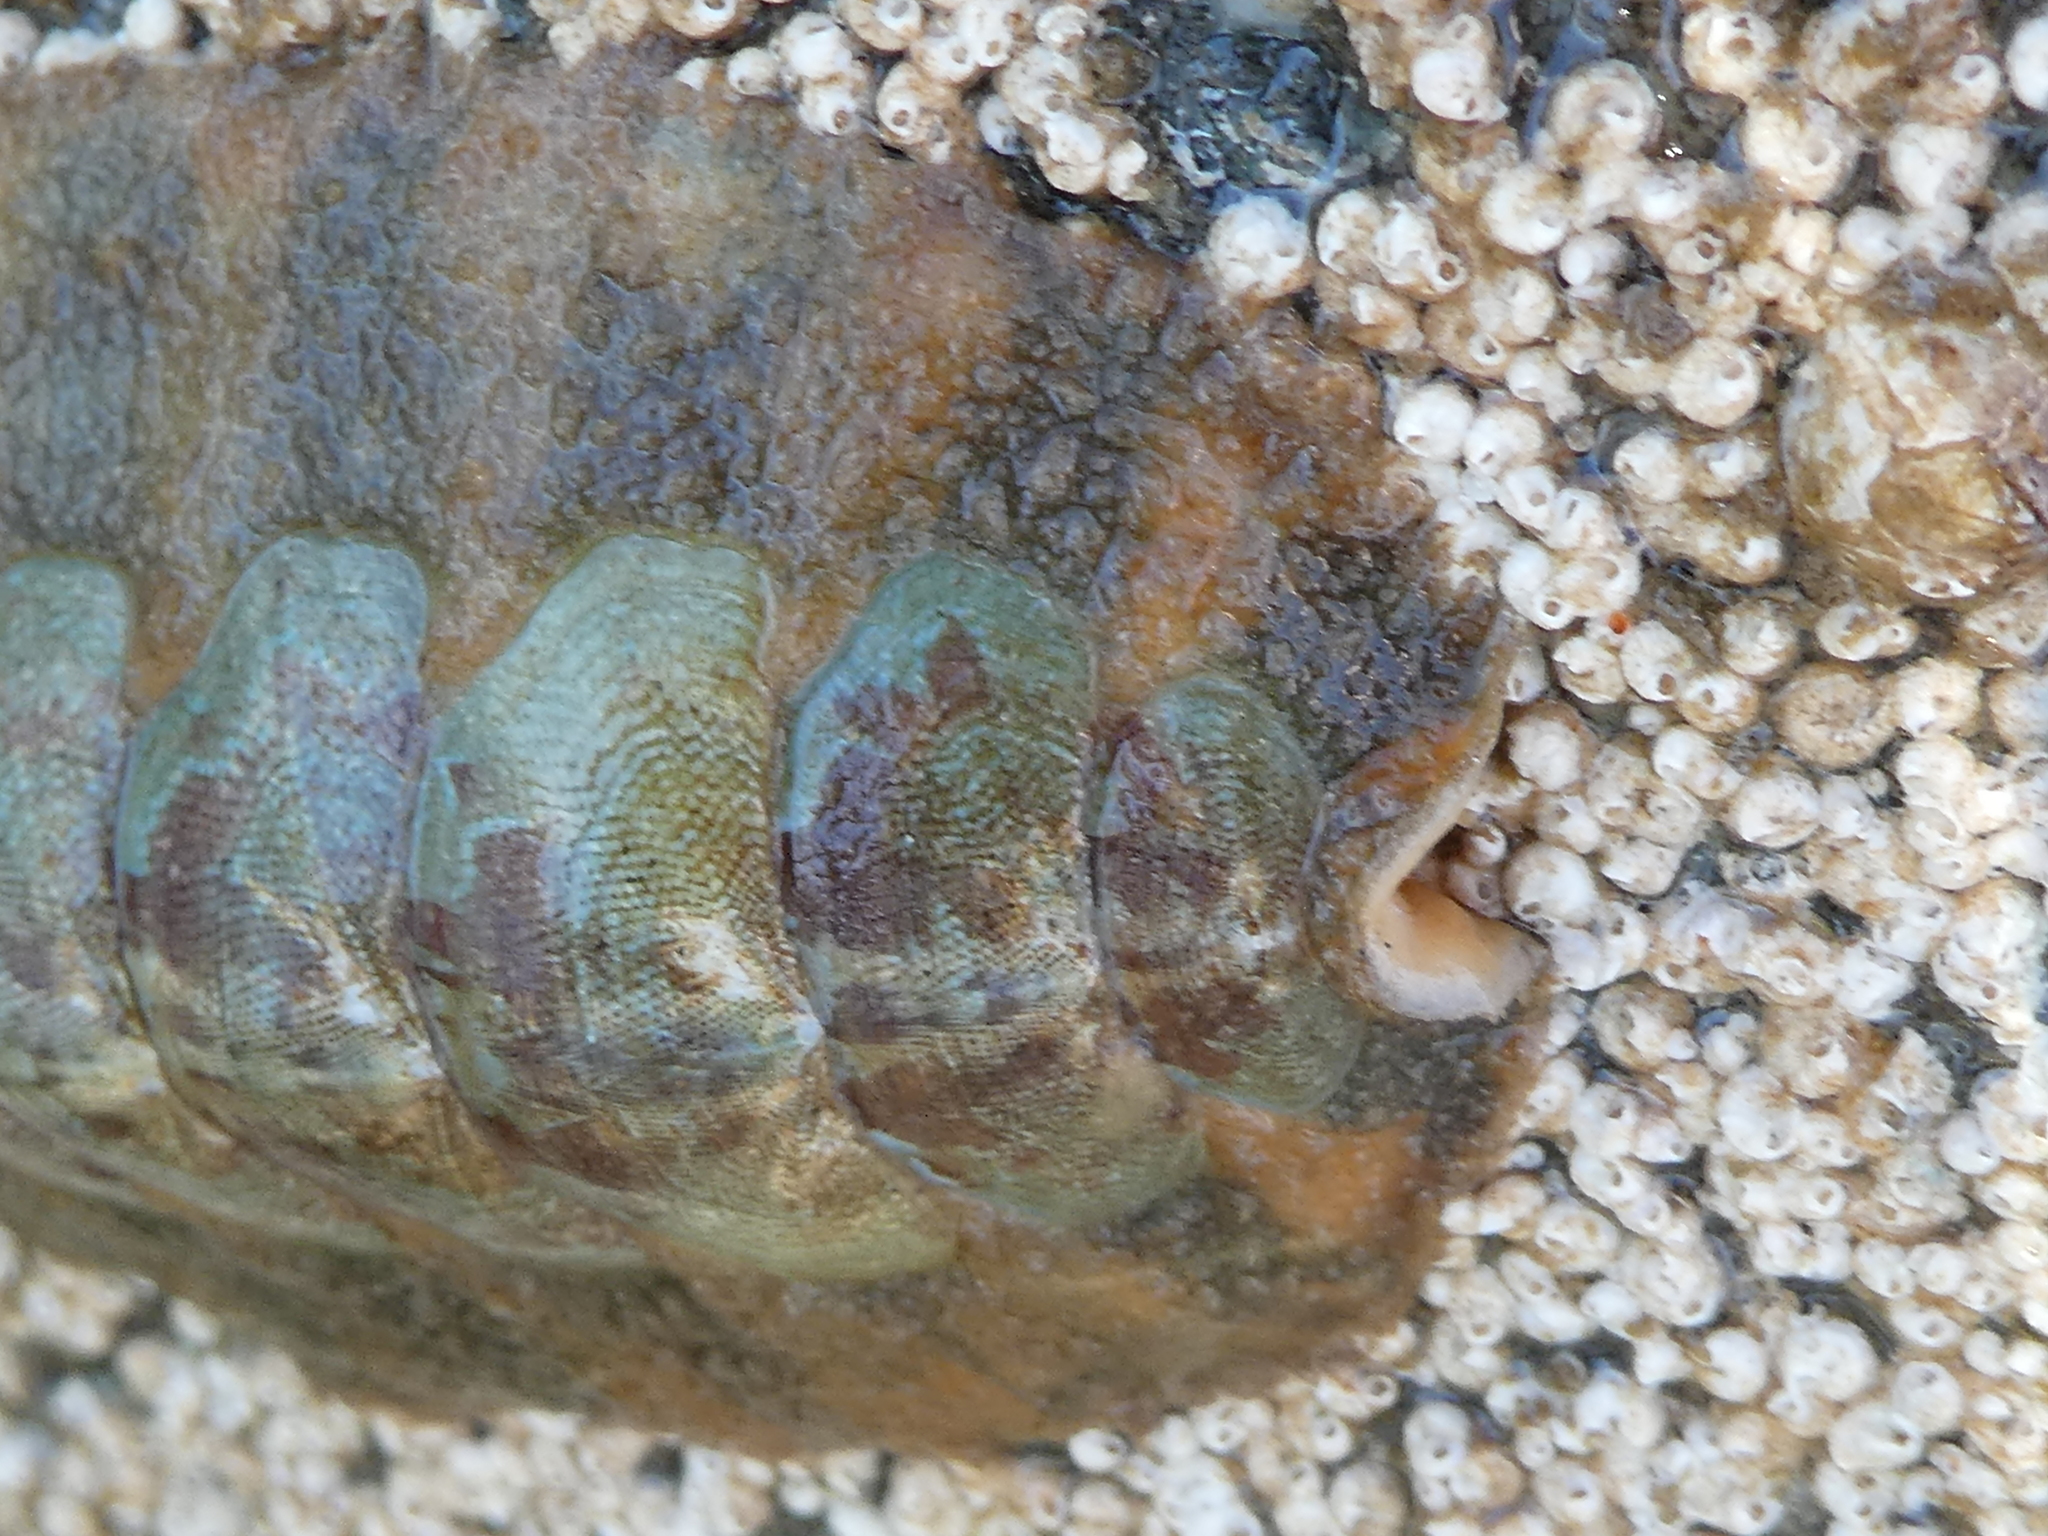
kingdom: Animalia
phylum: Mollusca
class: Polyplacophora
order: Chitonida
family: Mopaliidae
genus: Mopalia
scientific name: Mopalia ciliata
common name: Hairy chiton
